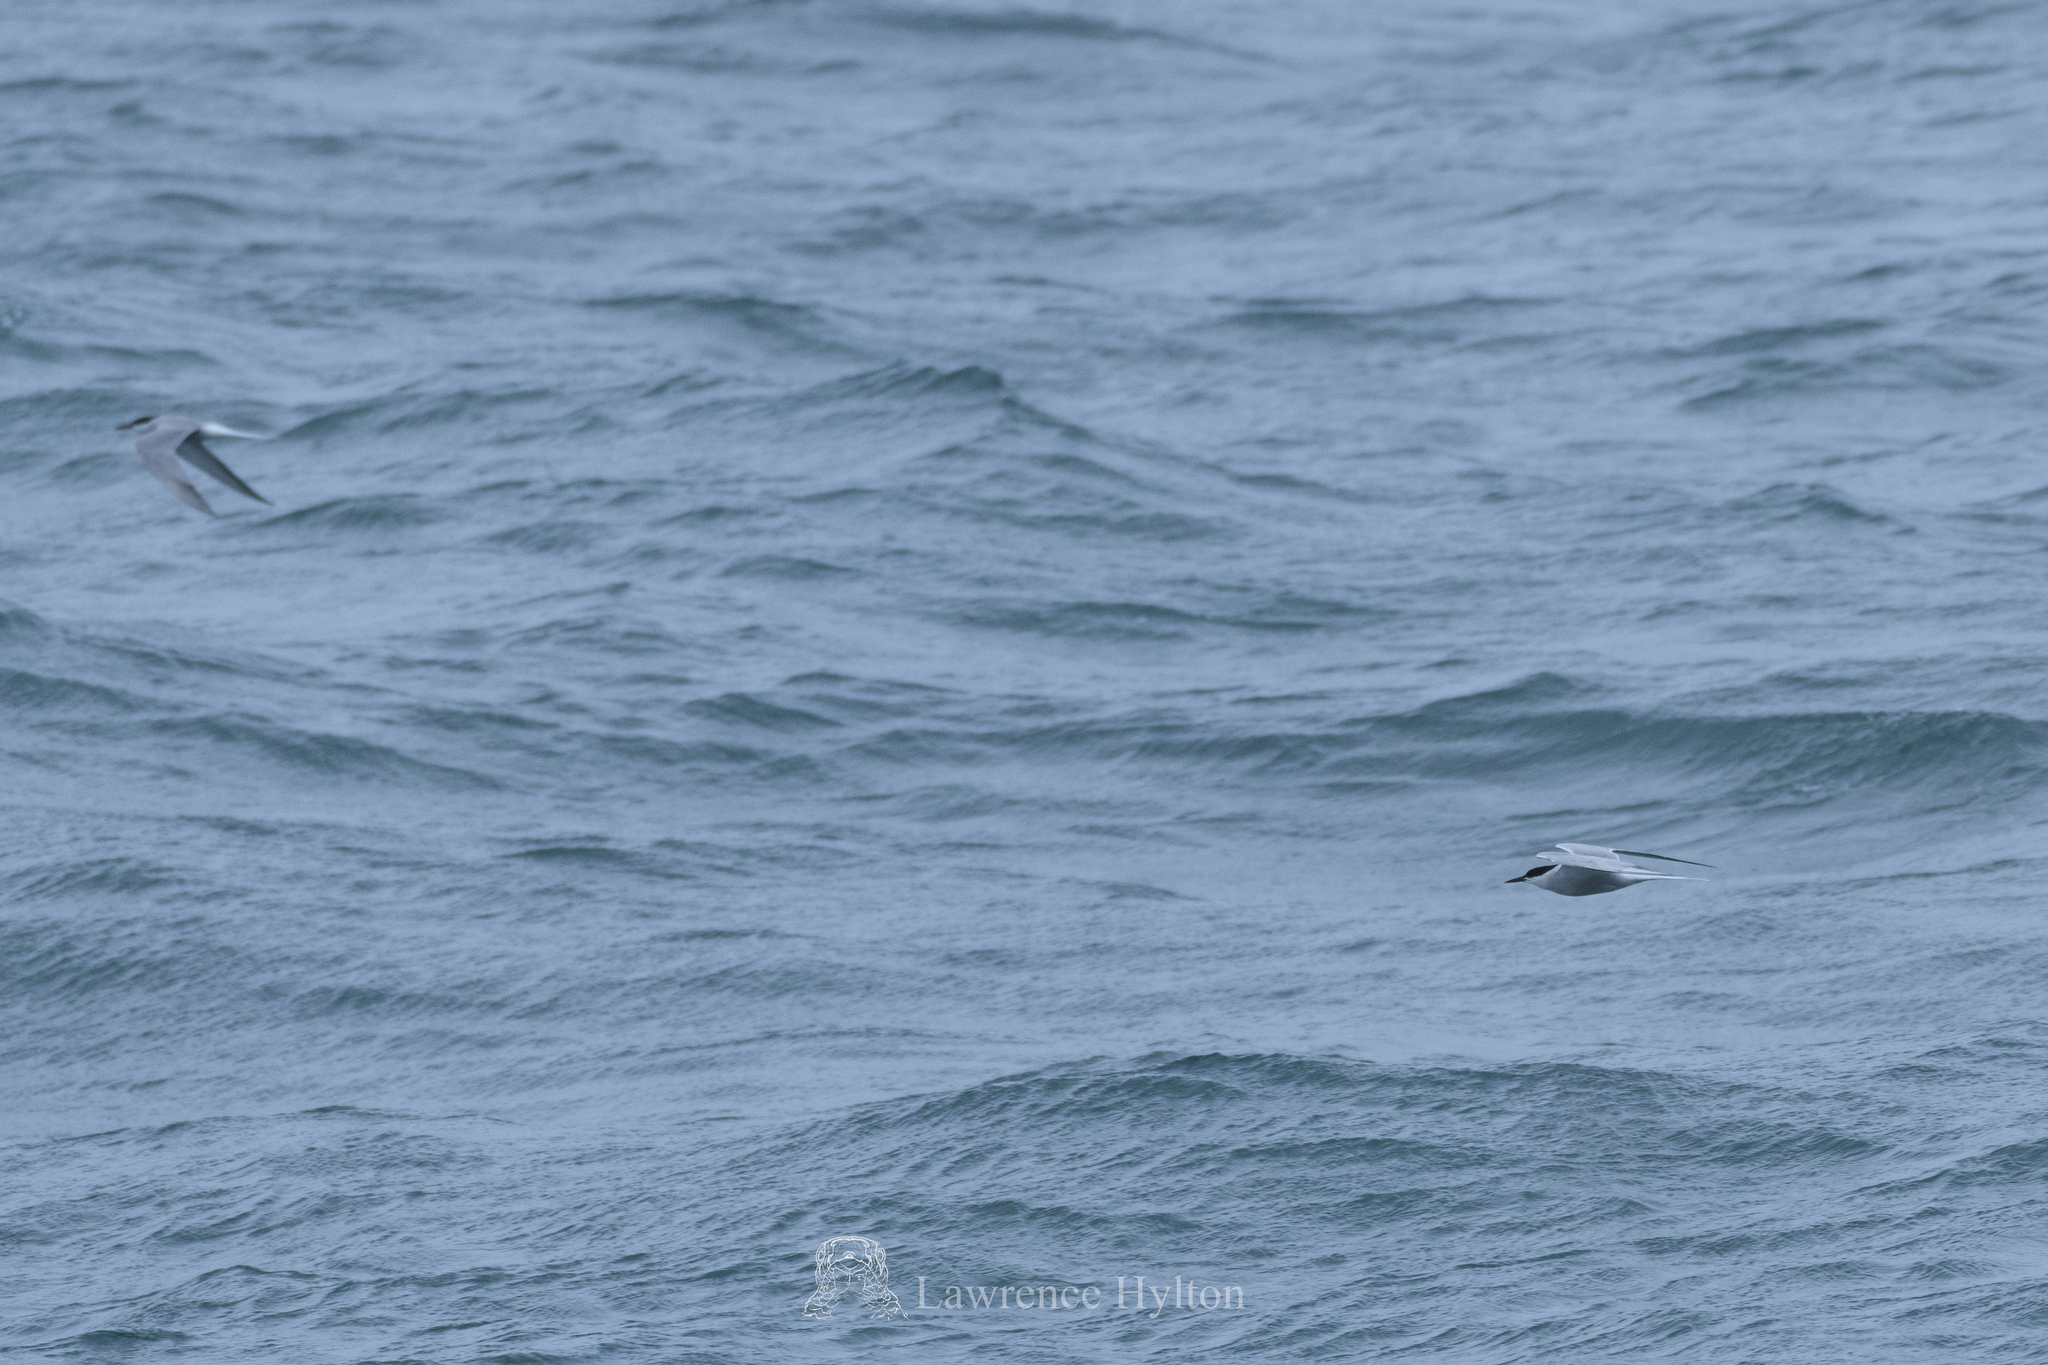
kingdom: Animalia
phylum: Chordata
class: Aves
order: Charadriiformes
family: Laridae
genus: Sterna
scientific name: Sterna hirundo
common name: Common tern
